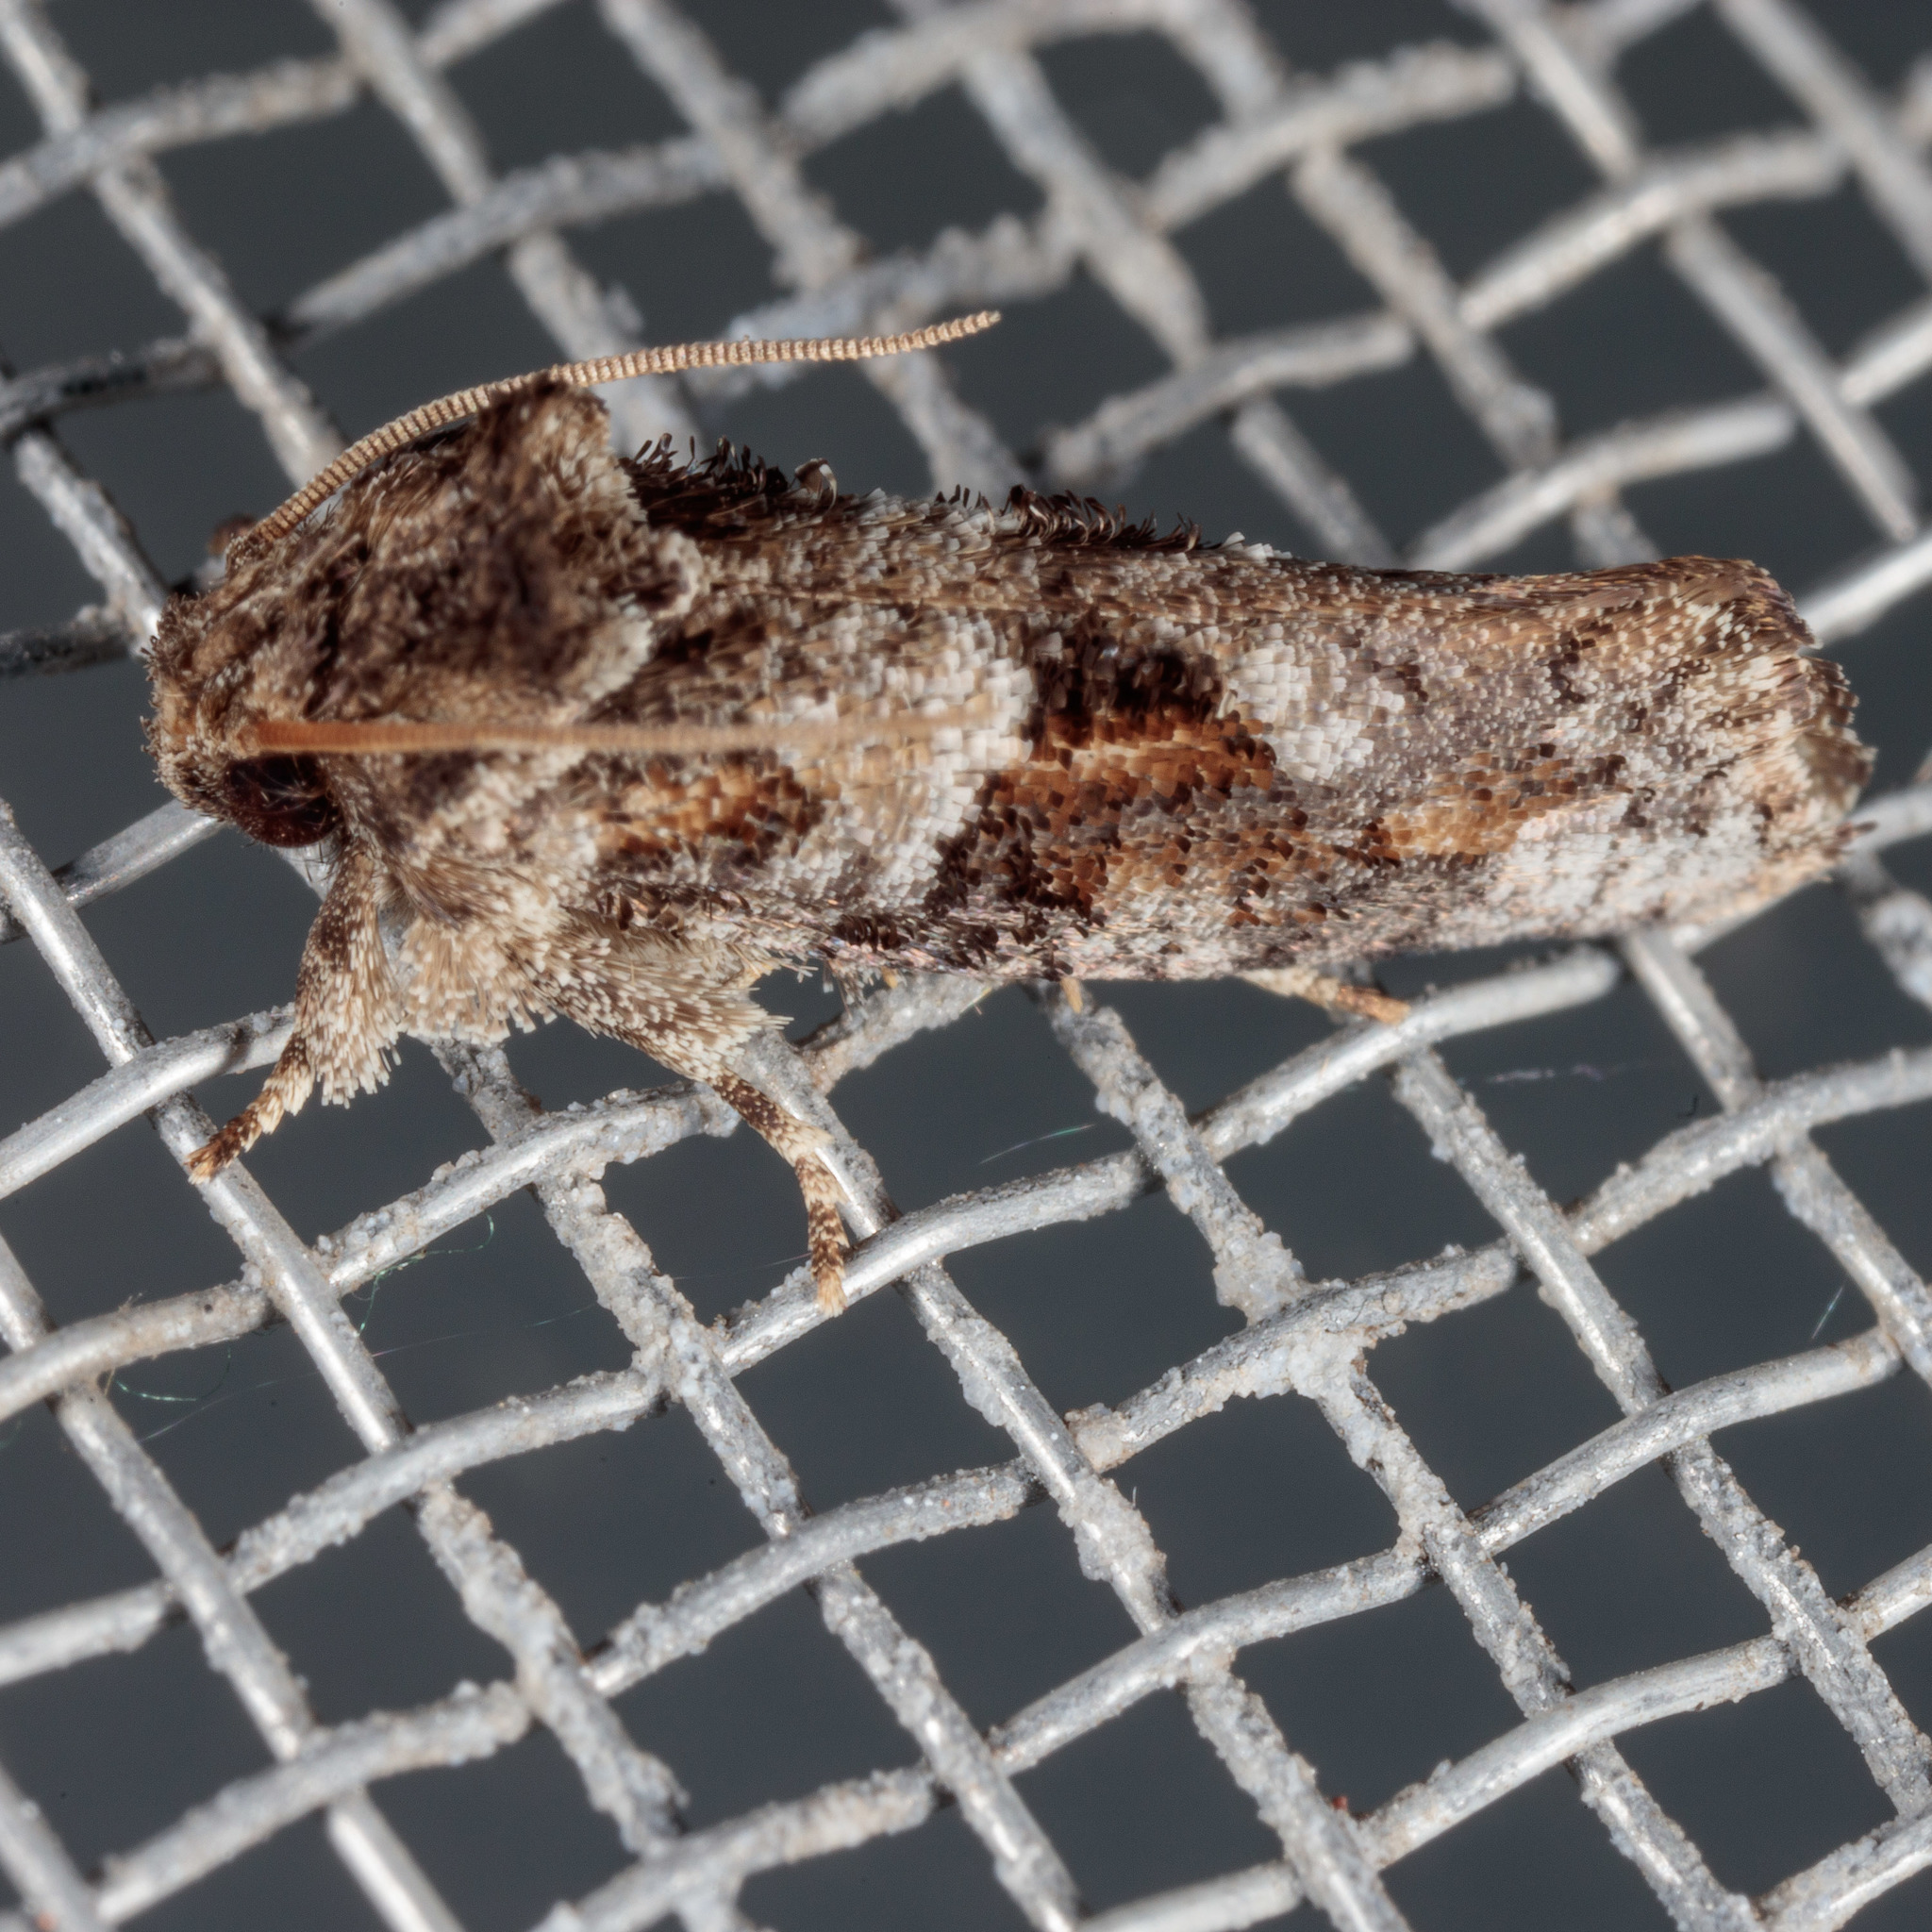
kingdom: Animalia
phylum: Arthropoda
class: Insecta
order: Lepidoptera
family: Tineidae
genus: Acrolophus
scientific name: Acrolophus piger
